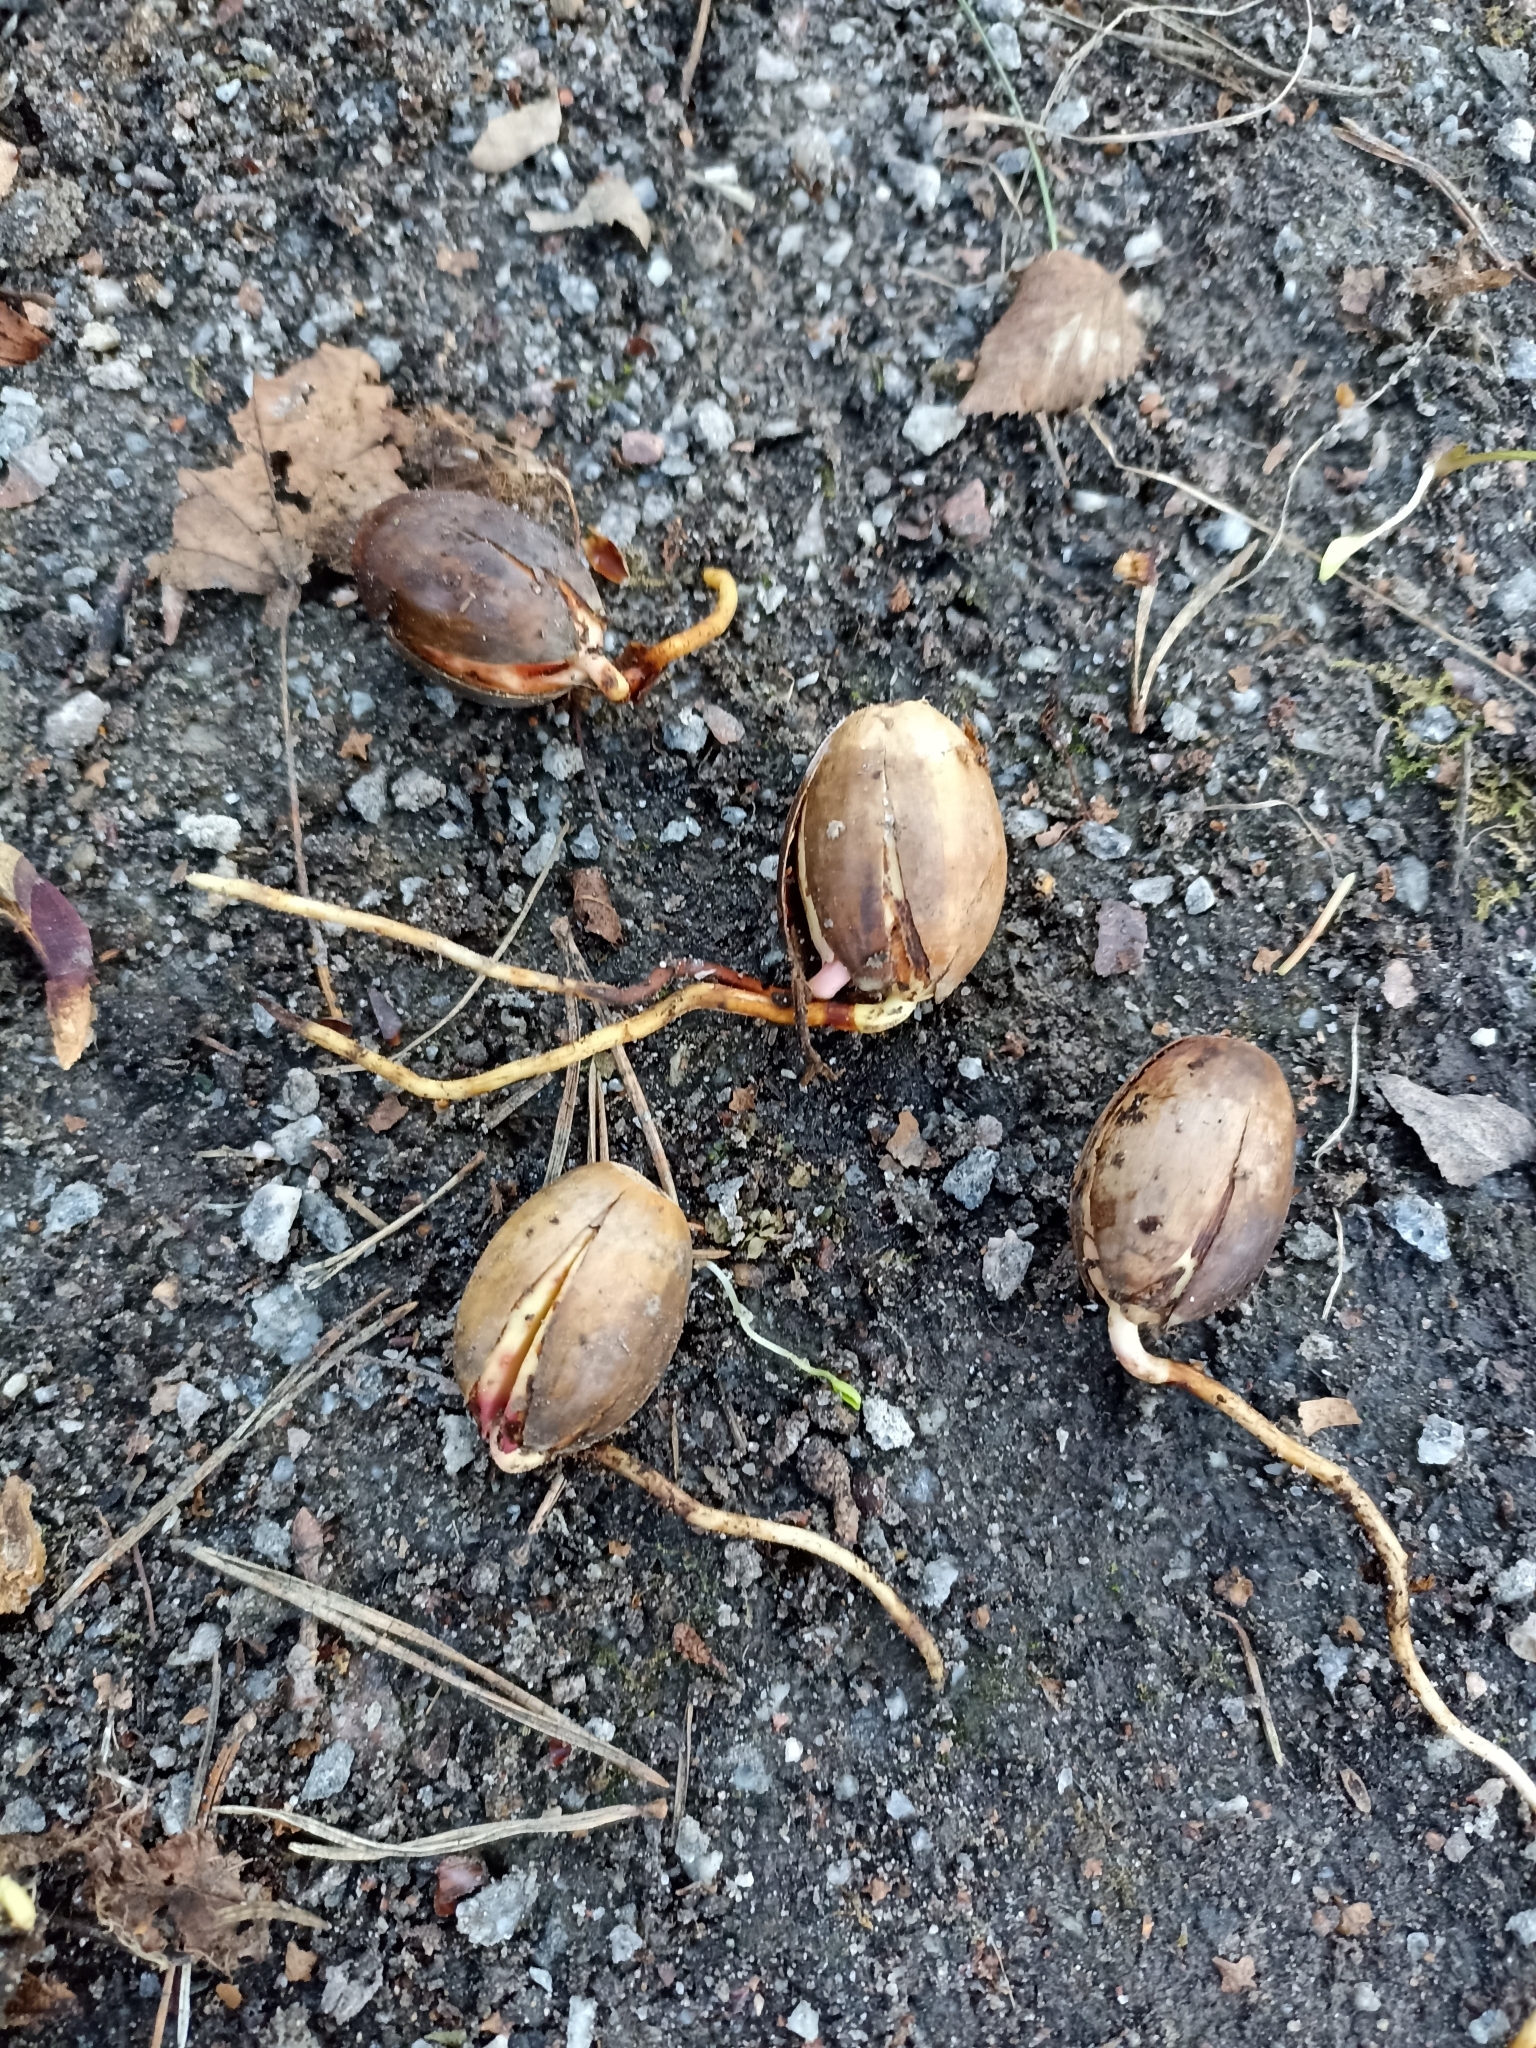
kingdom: Plantae
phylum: Tracheophyta
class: Magnoliopsida
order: Fagales
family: Fagaceae
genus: Quercus
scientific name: Quercus robur
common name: Pedunculate oak
